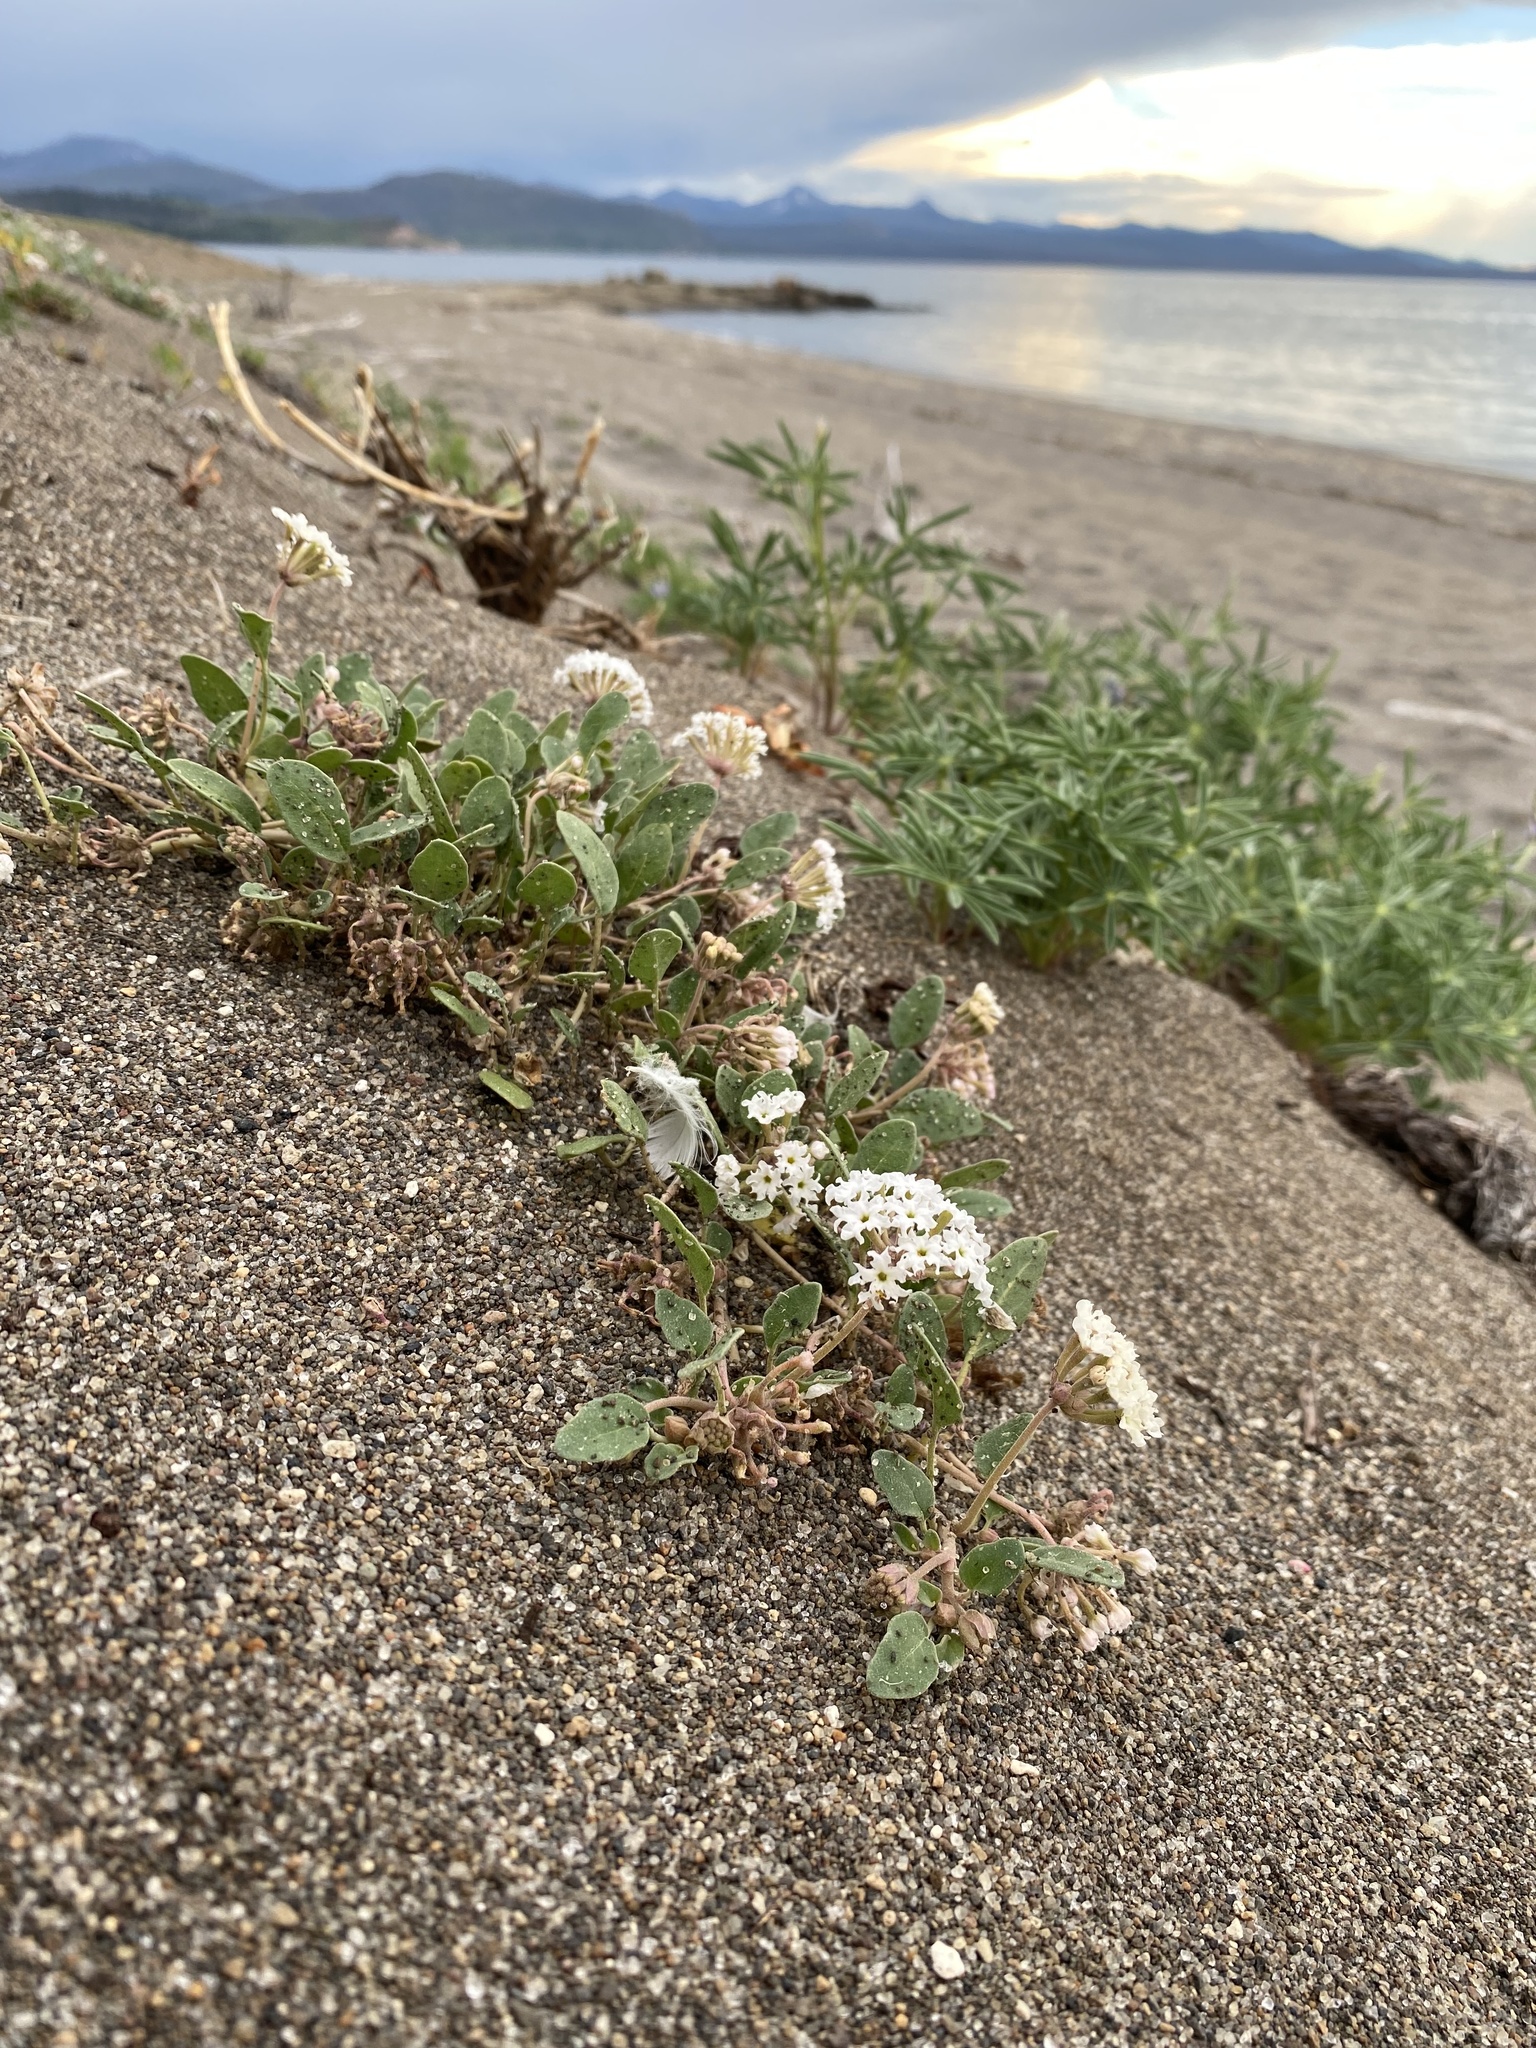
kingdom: Plantae
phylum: Tracheophyta
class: Magnoliopsida
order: Caryophyllales
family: Nyctaginaceae
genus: Abronia
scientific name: Abronia ammophila
